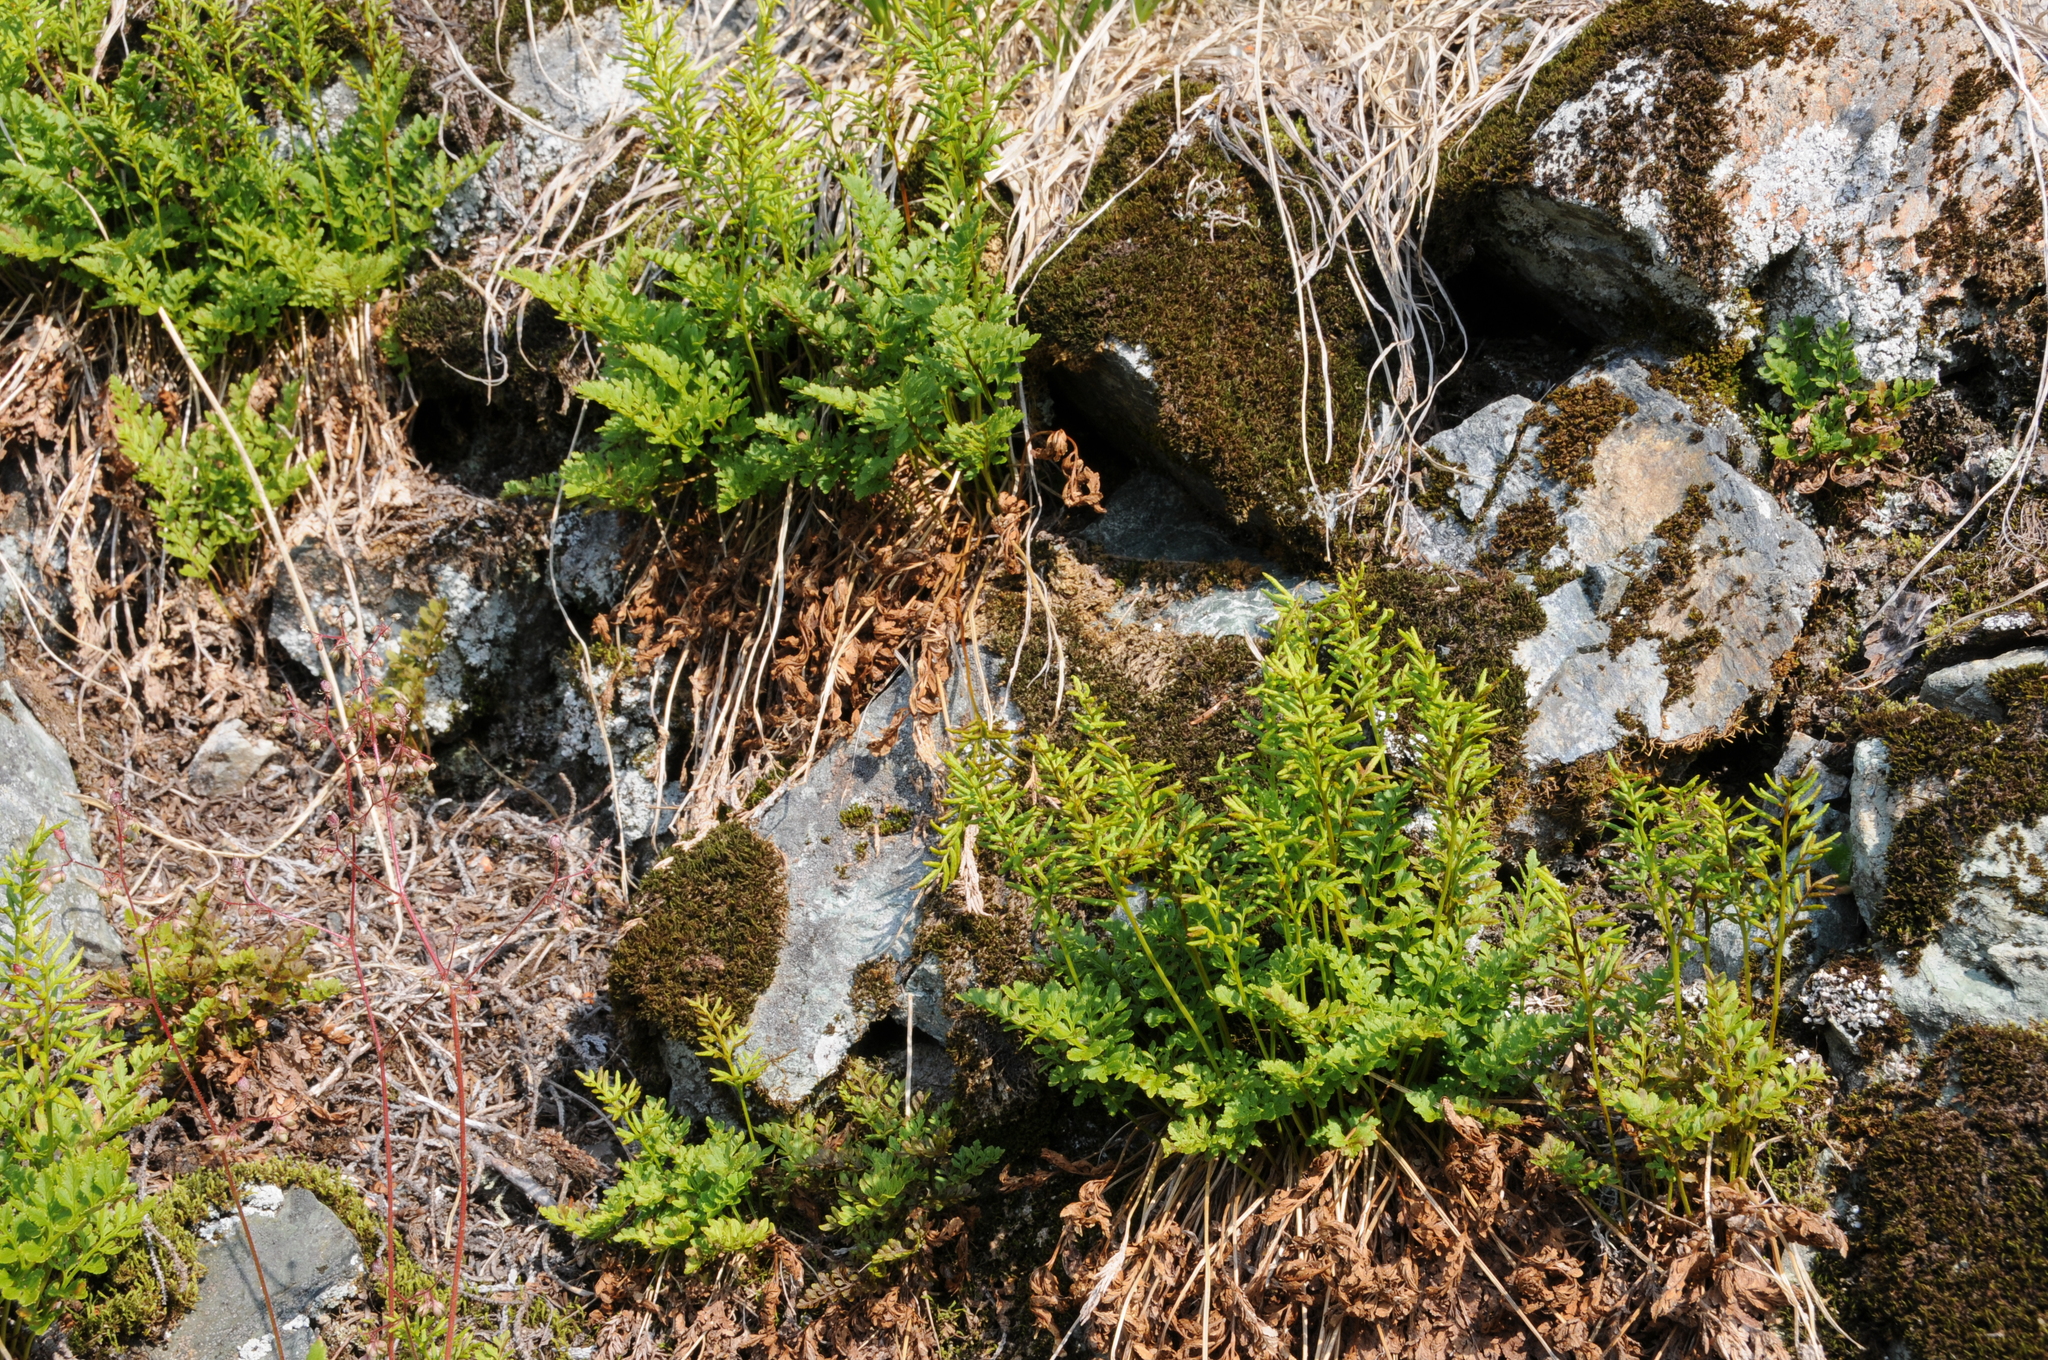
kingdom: Plantae
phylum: Tracheophyta
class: Polypodiopsida
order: Polypodiales
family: Pteridaceae
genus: Cryptogramma
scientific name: Cryptogramma acrostichoides
